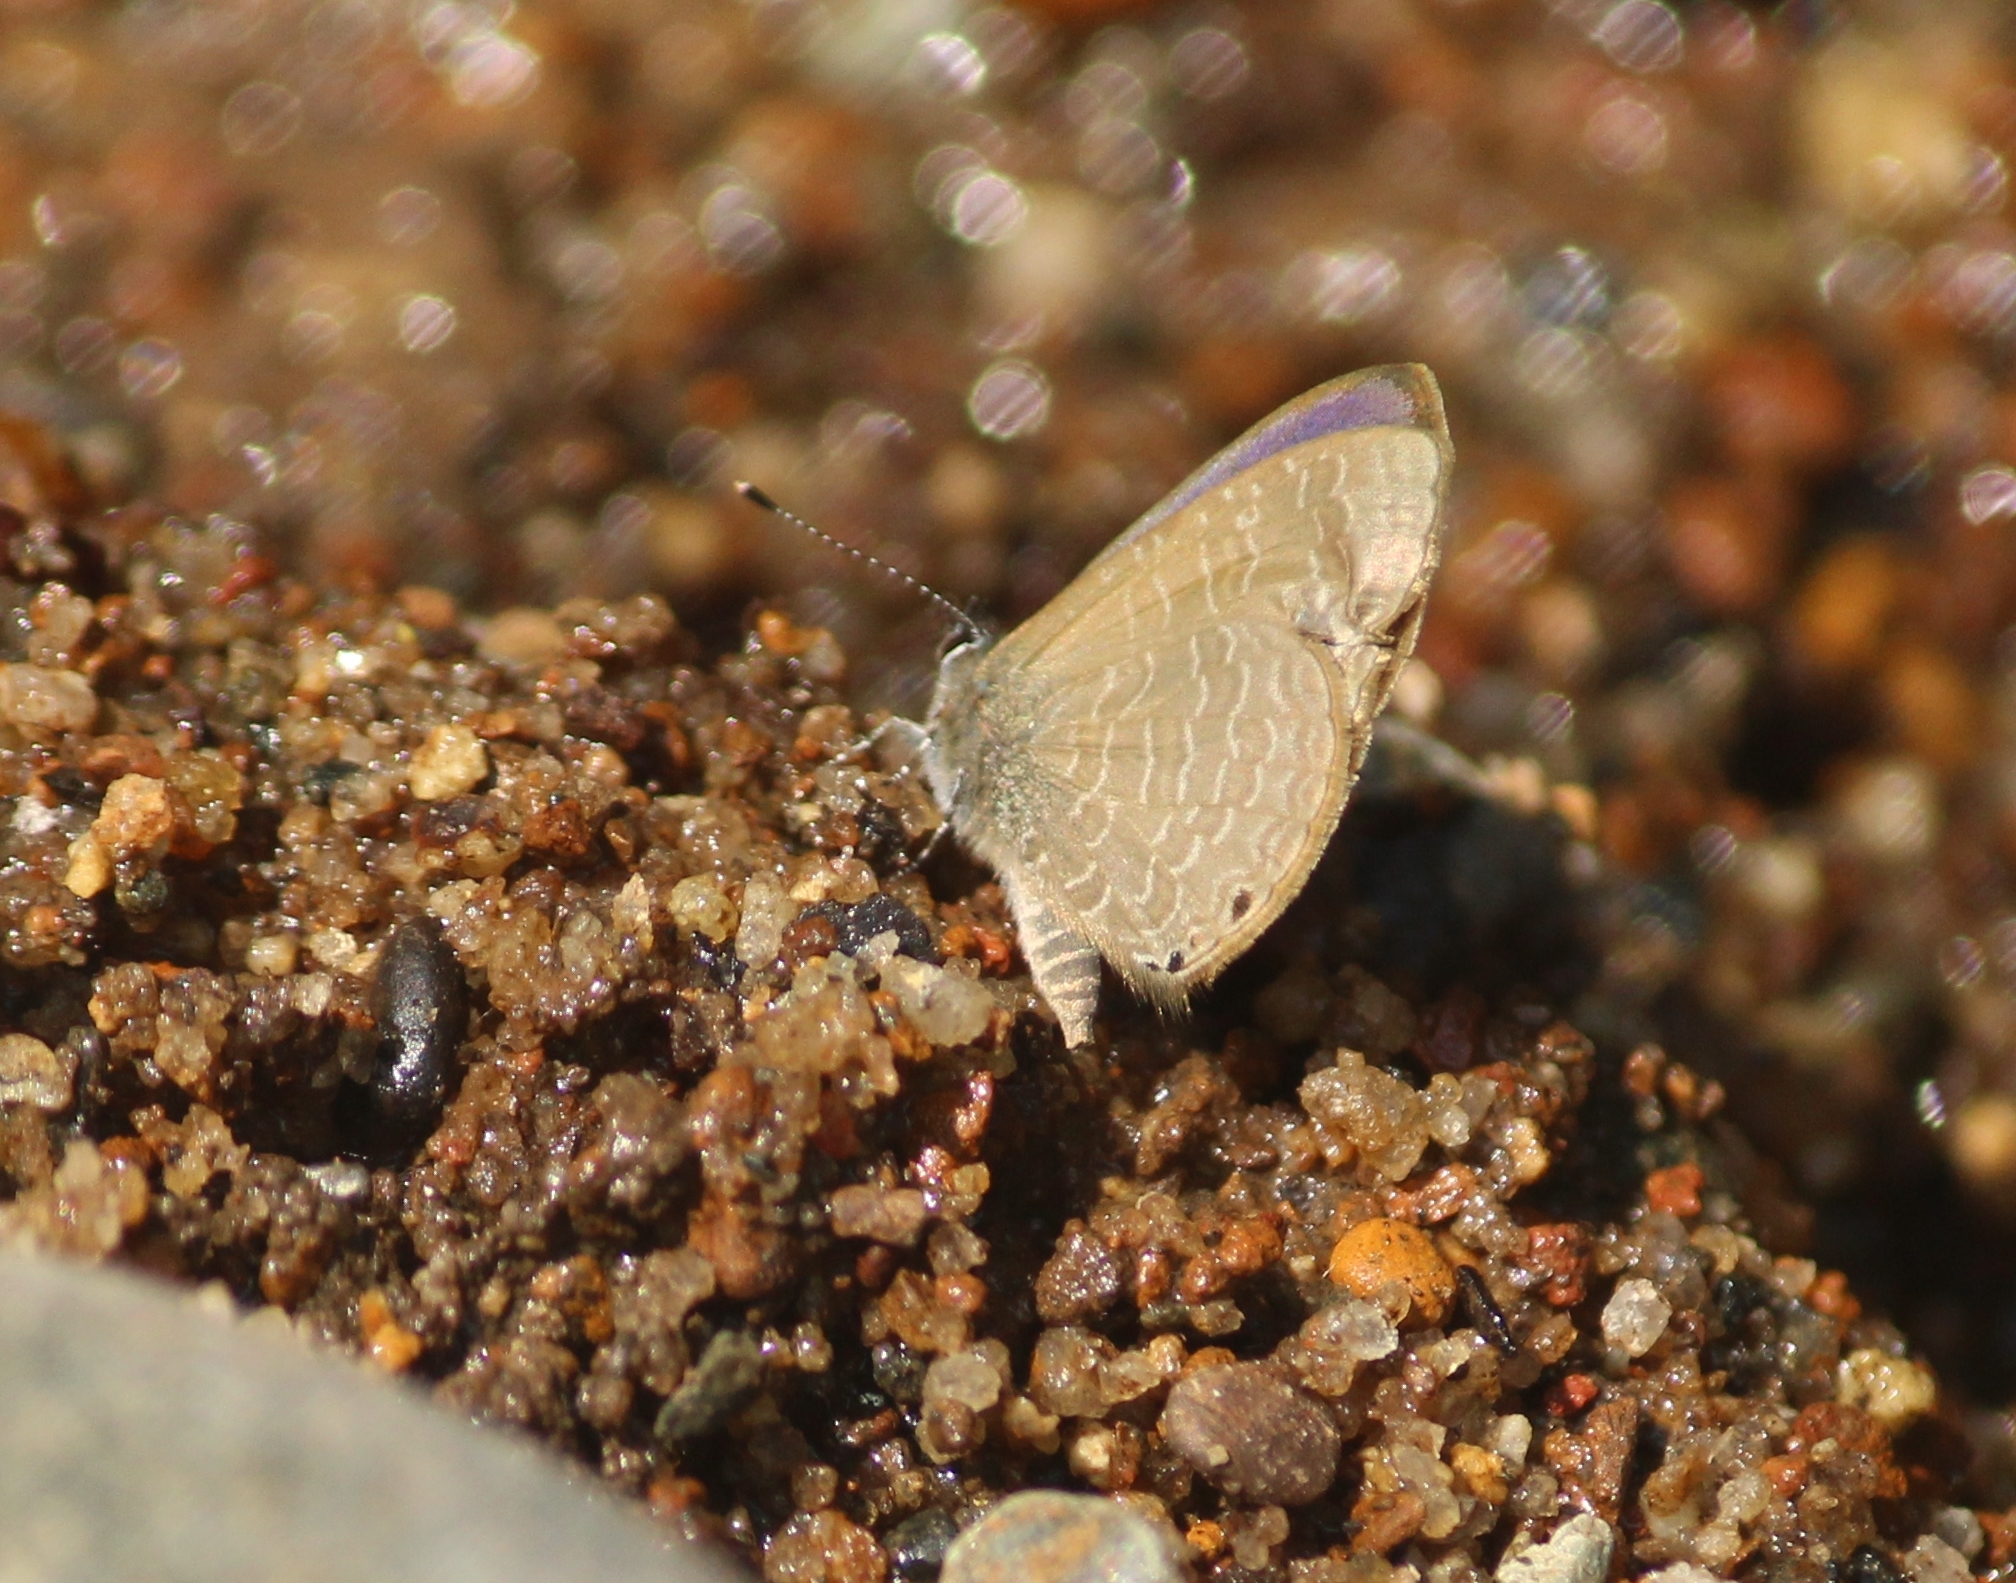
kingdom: Animalia
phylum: Arthropoda
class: Insecta
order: Lepidoptera
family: Lycaenidae
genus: Petrelaea
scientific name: Petrelaea dana
